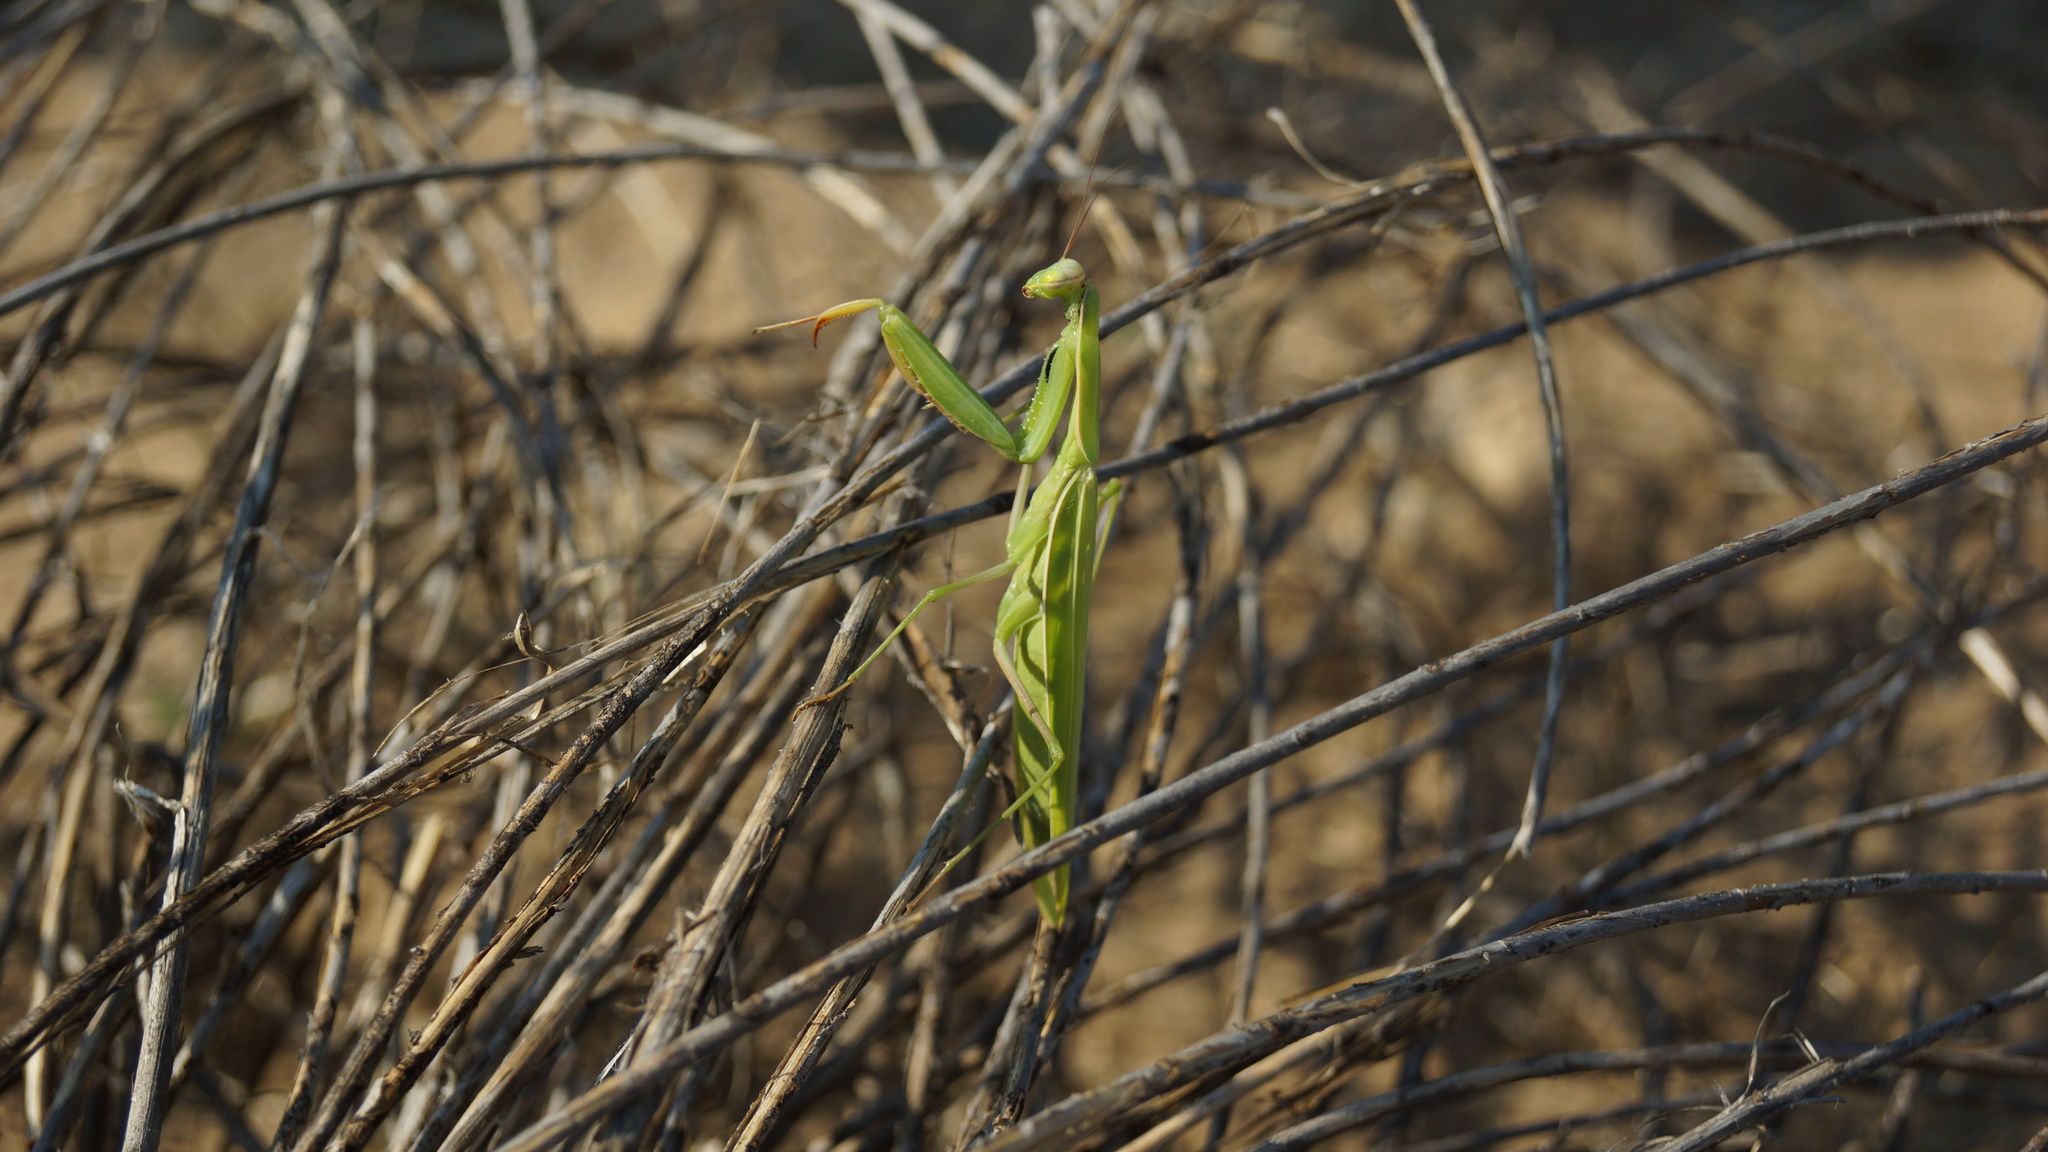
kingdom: Animalia
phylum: Arthropoda
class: Insecta
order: Mantodea
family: Mantidae
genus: Mantis
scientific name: Mantis religiosa
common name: Praying mantis
